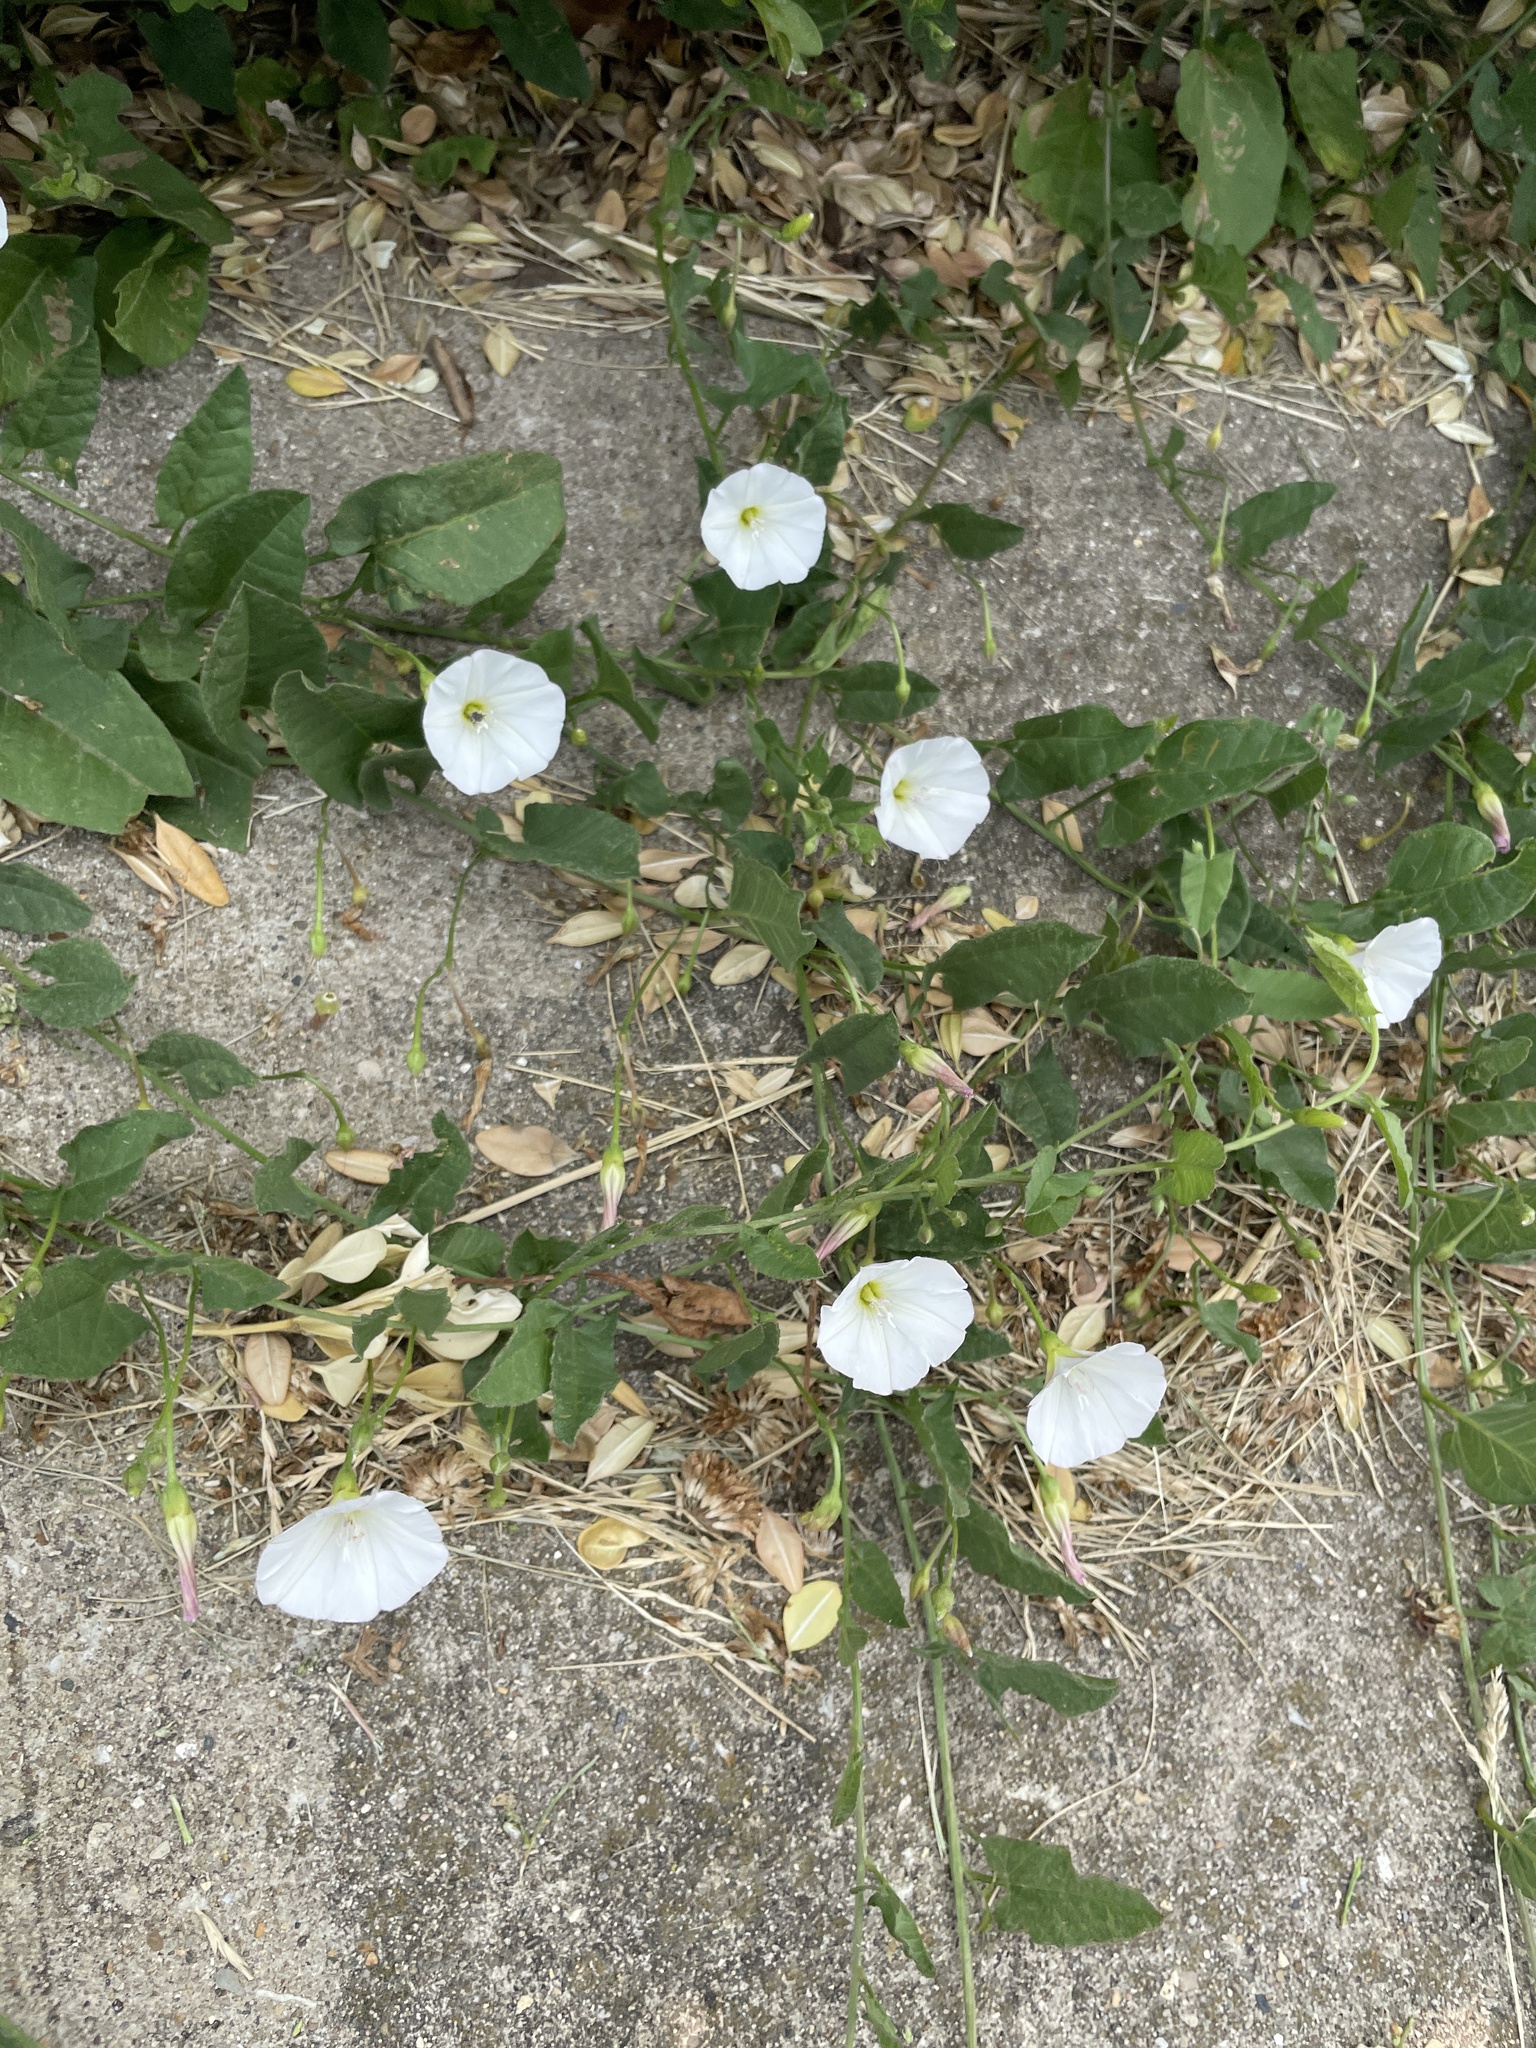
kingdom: Plantae
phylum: Tracheophyta
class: Magnoliopsida
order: Solanales
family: Convolvulaceae
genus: Convolvulus
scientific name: Convolvulus arvensis
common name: Field bindweed
